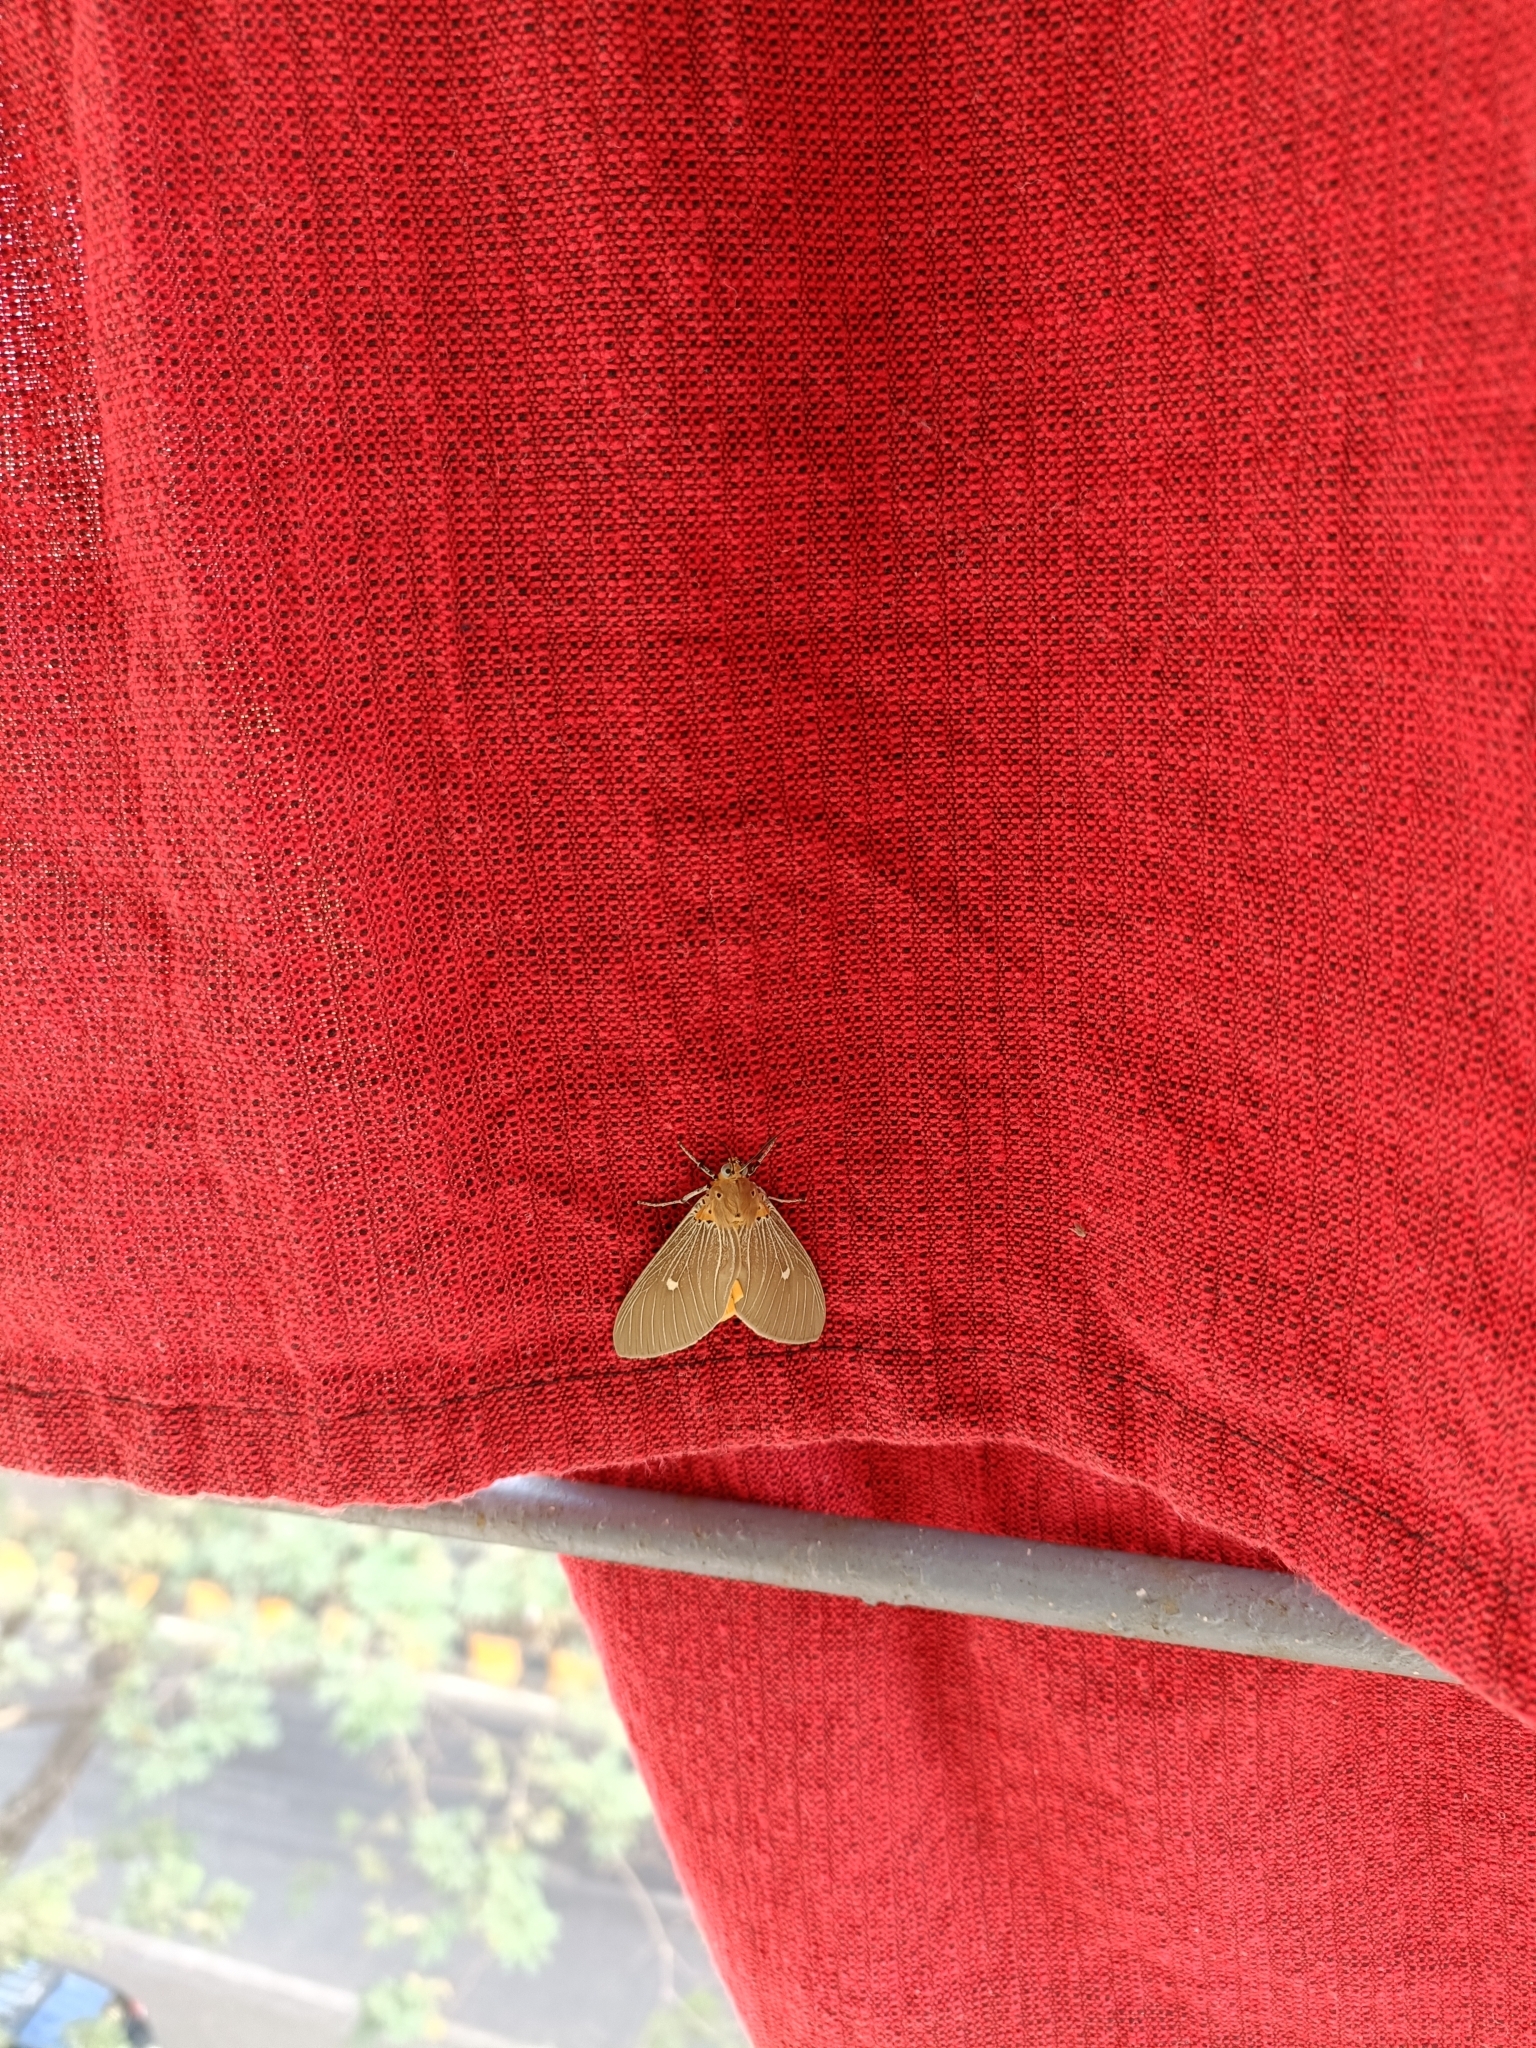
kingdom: Animalia
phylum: Arthropoda
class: Insecta
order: Lepidoptera
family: Erebidae
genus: Asota
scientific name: Asota caricae
